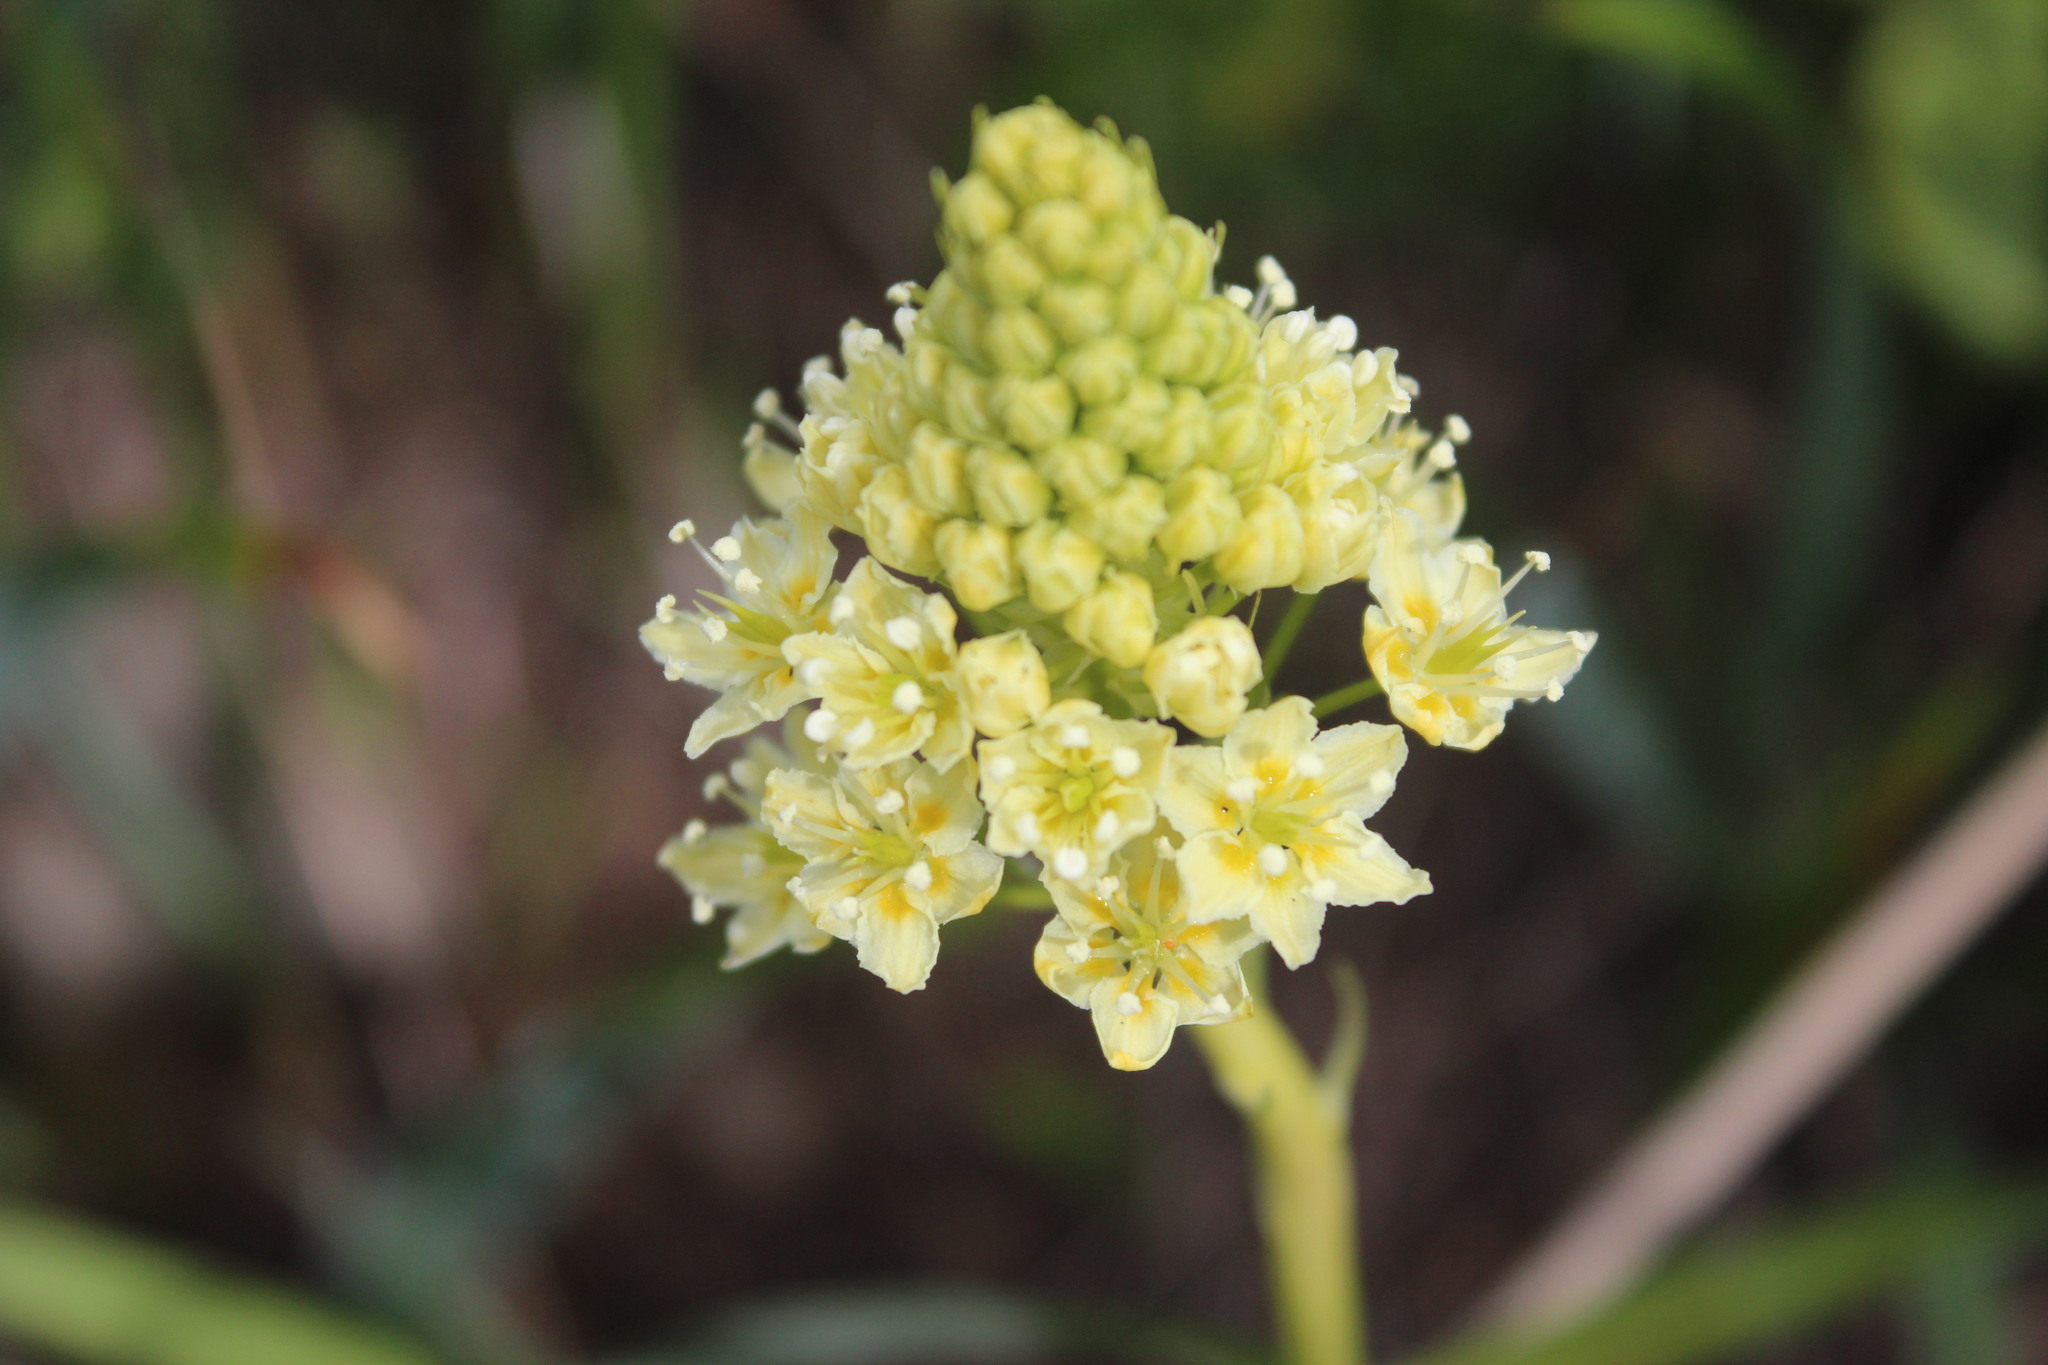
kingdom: Plantae
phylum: Tracheophyta
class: Liliopsida
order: Liliales
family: Melanthiaceae
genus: Toxicoscordion
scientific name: Toxicoscordion venenosum
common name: Meadow death camas
